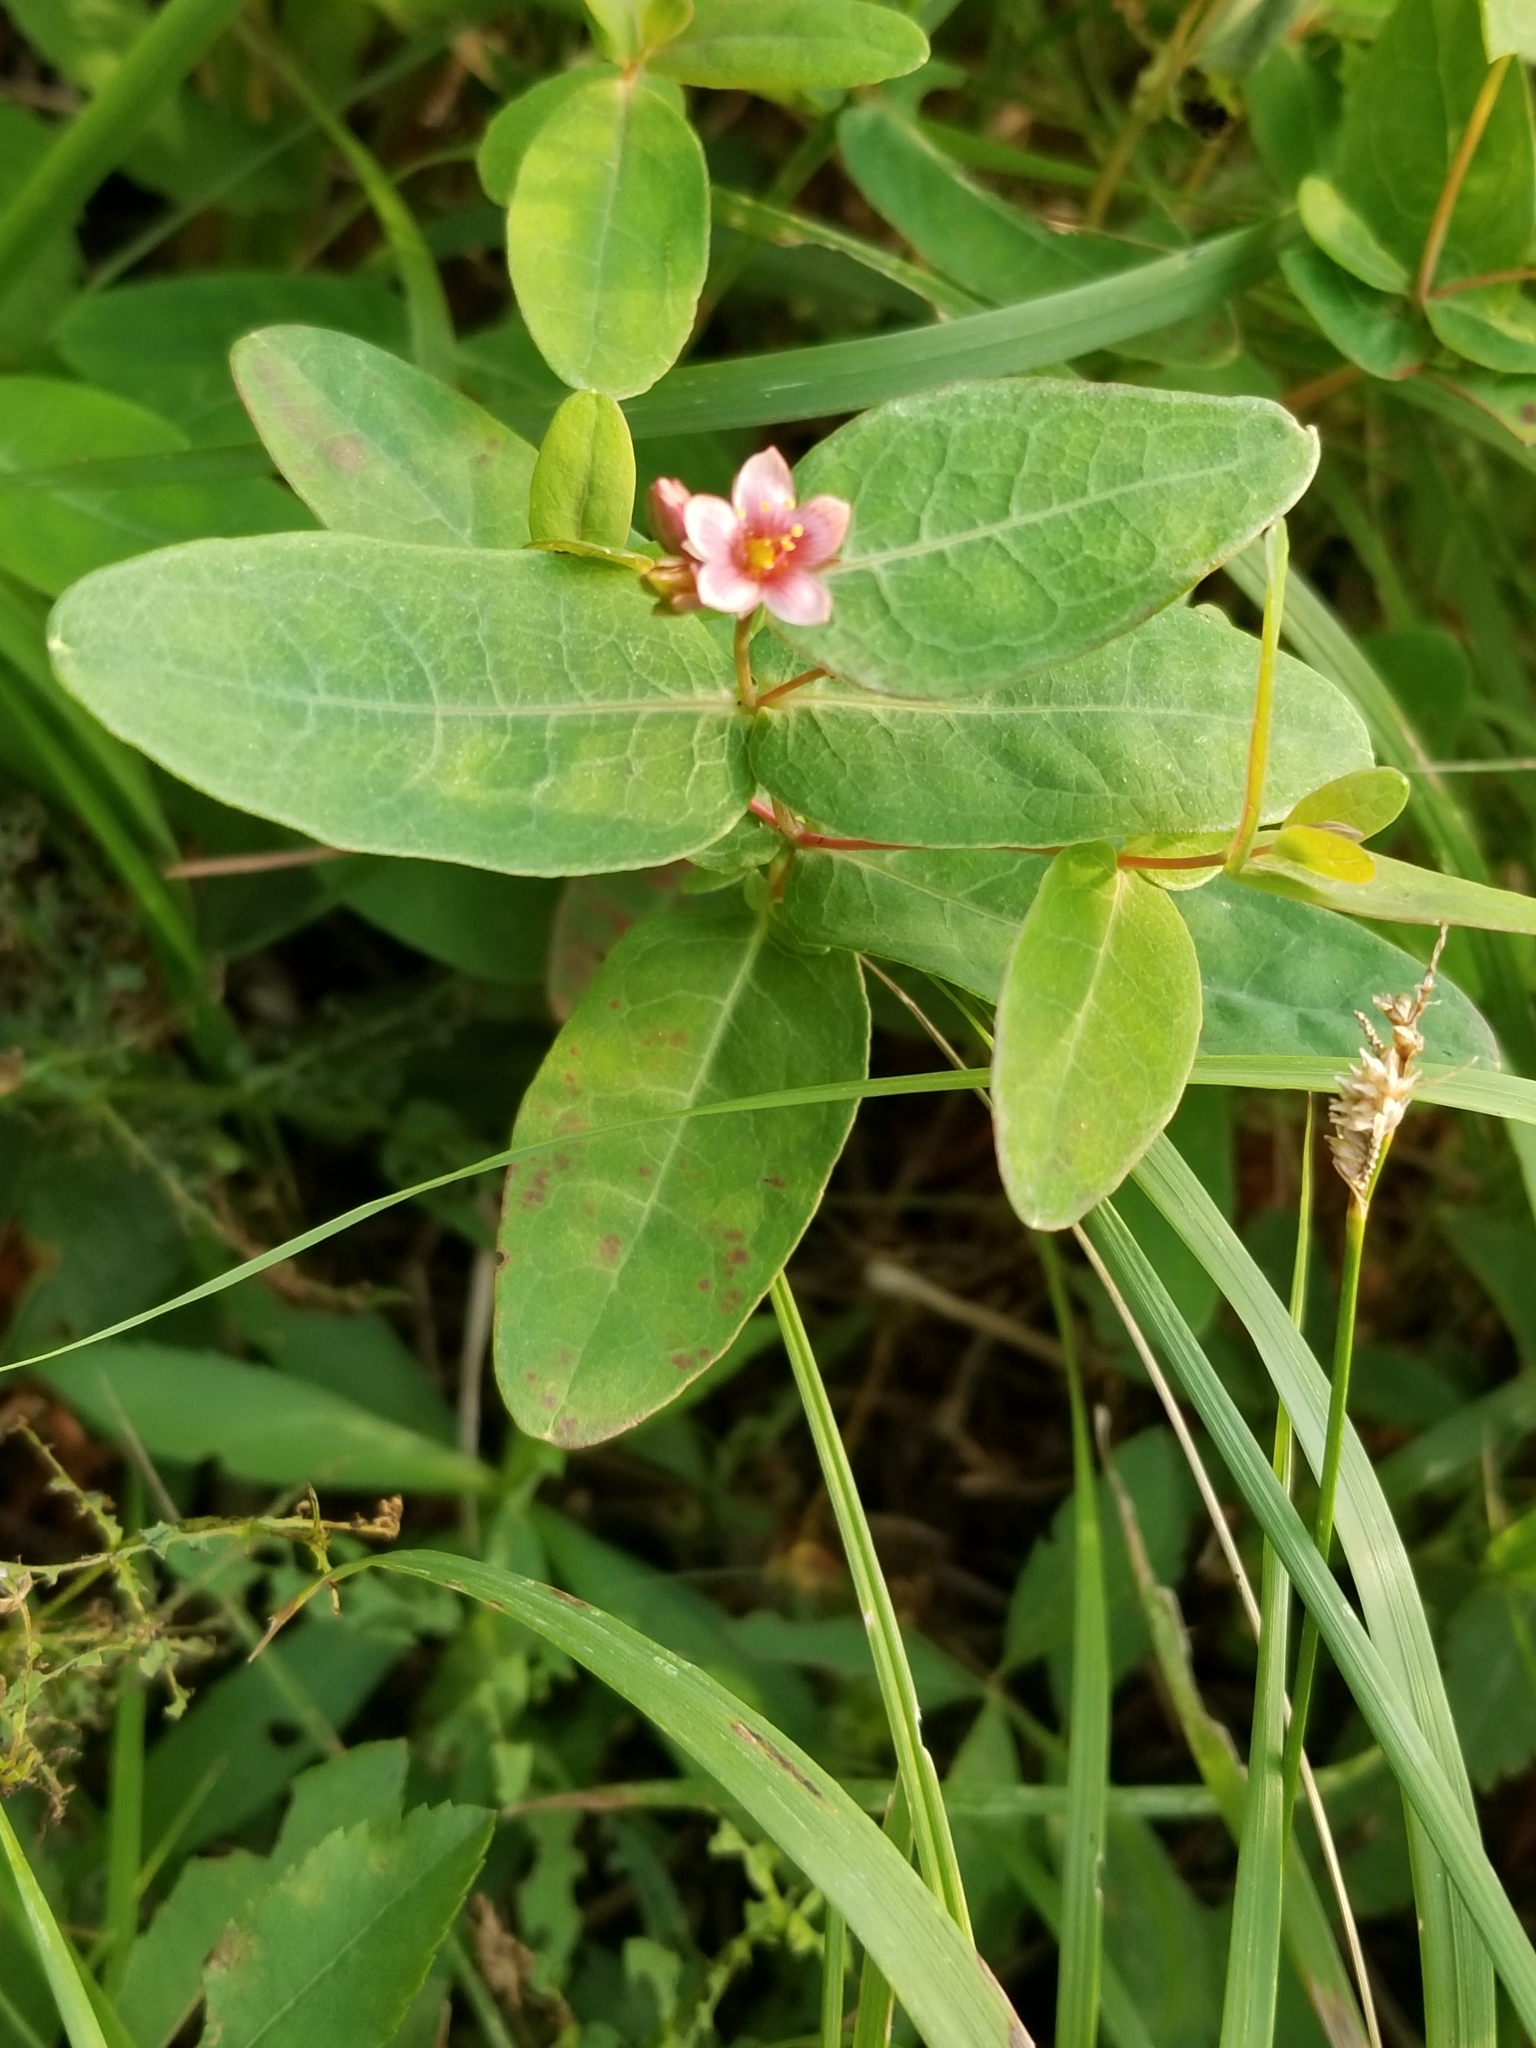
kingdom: Plantae
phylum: Tracheophyta
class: Magnoliopsida
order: Malpighiales
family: Hypericaceae
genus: Triadenum
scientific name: Triadenum fraseri
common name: Fraser's marsh st. johnswort
